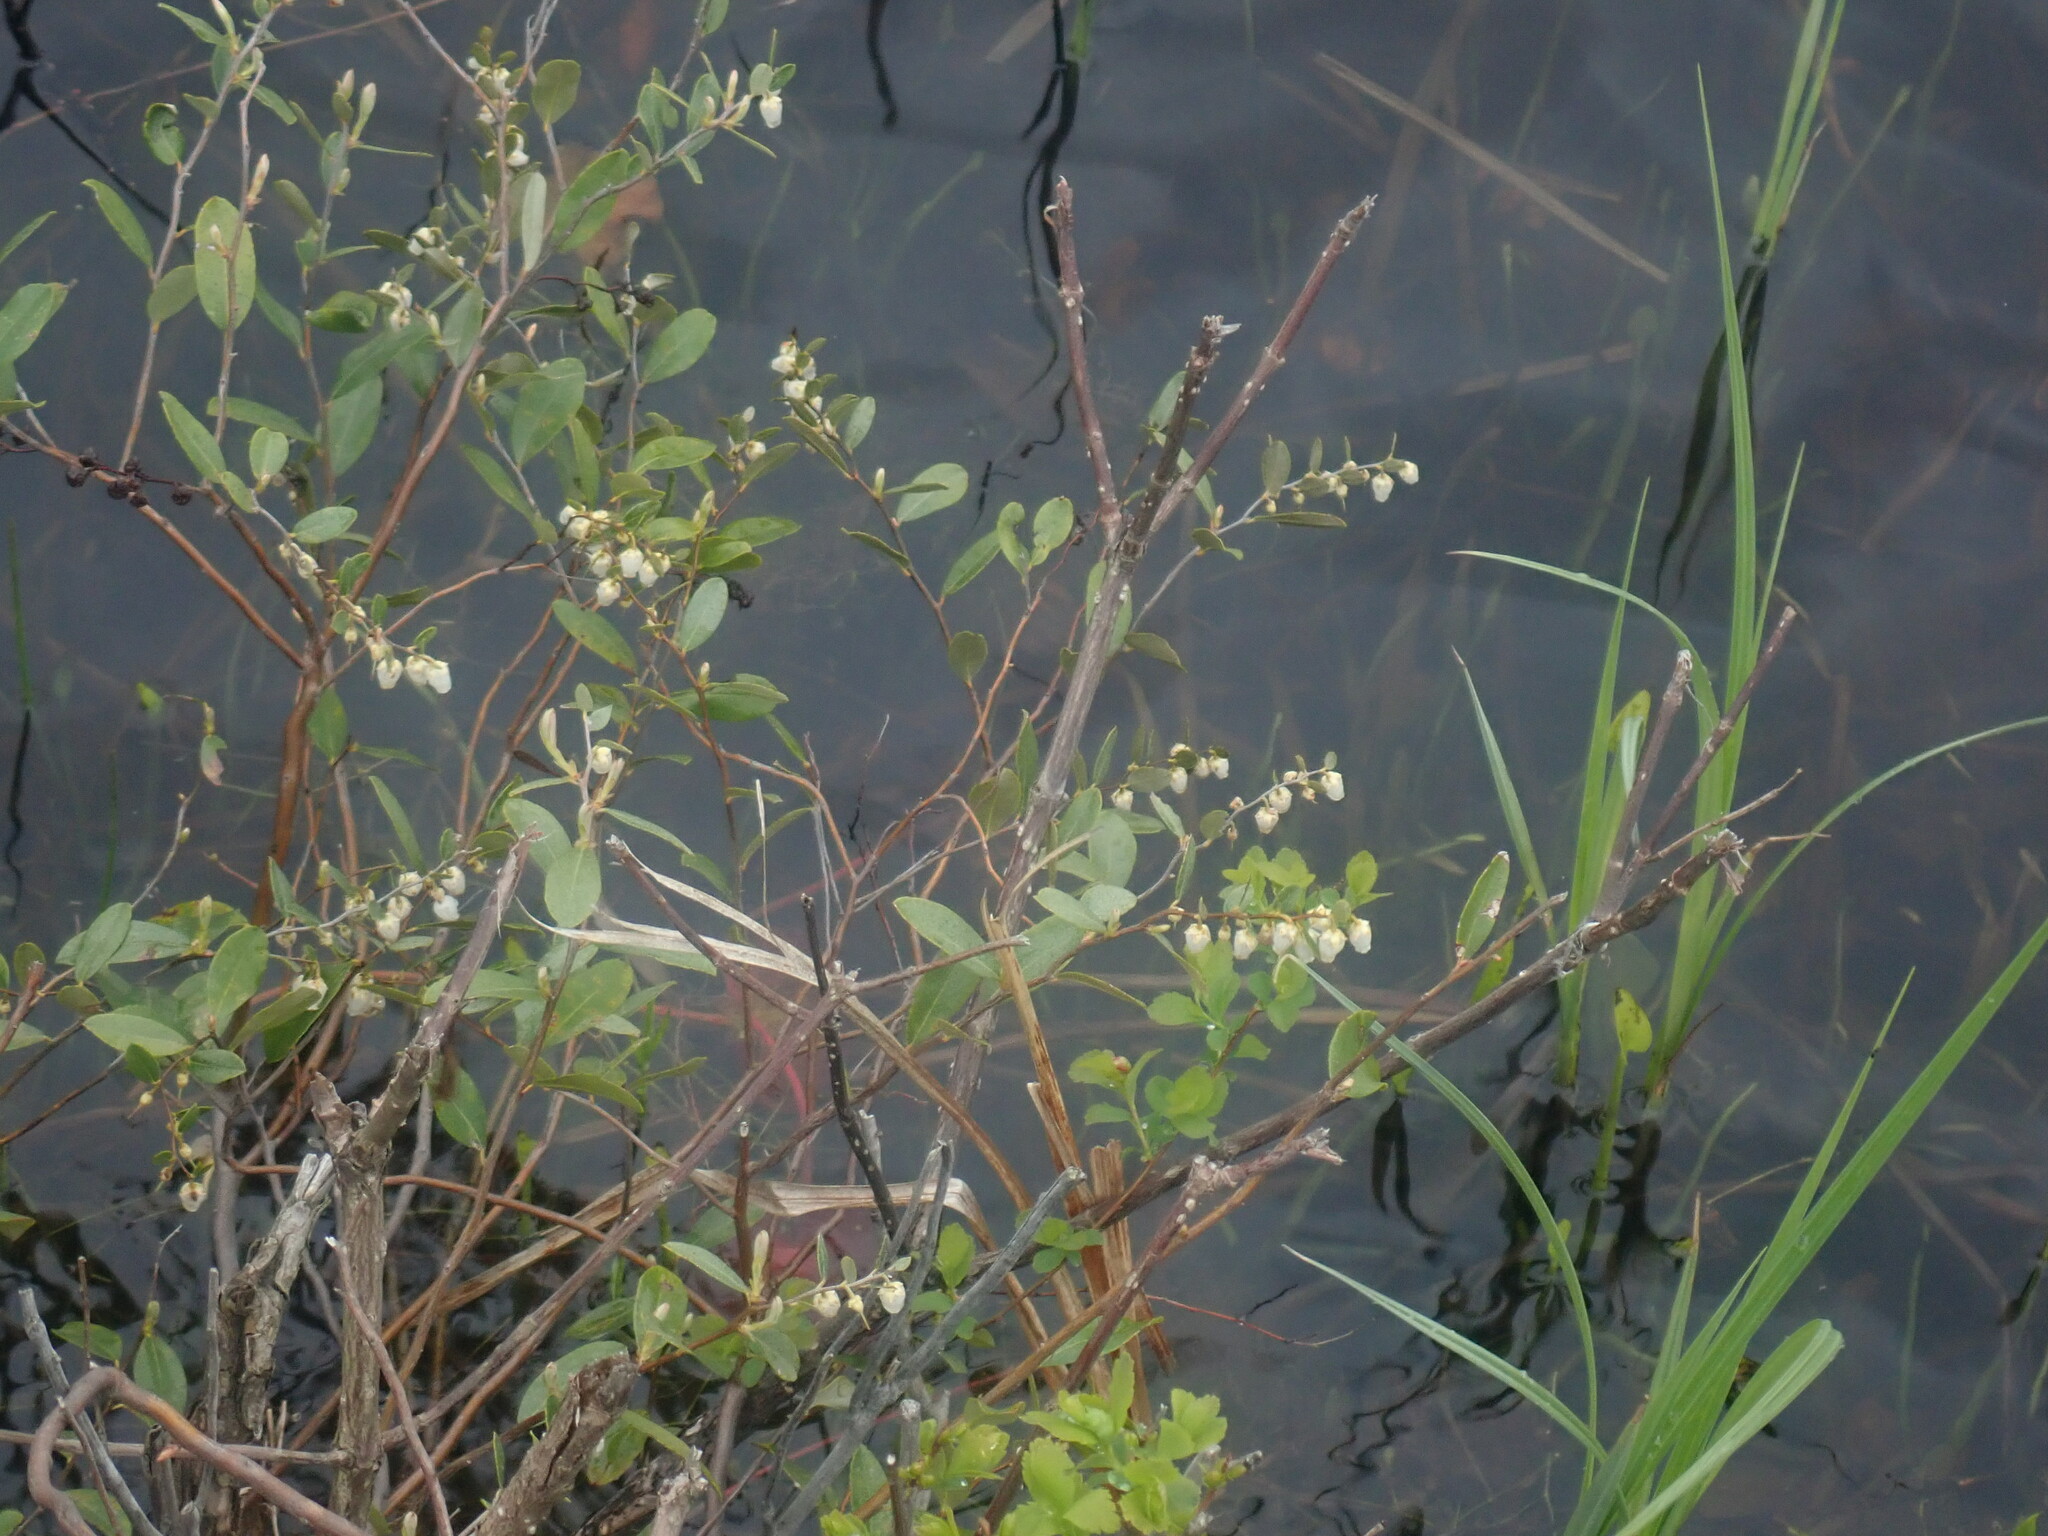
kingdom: Plantae
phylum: Tracheophyta
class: Magnoliopsida
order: Ericales
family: Ericaceae
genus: Chamaedaphne
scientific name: Chamaedaphne calyculata
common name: Leatherleaf
